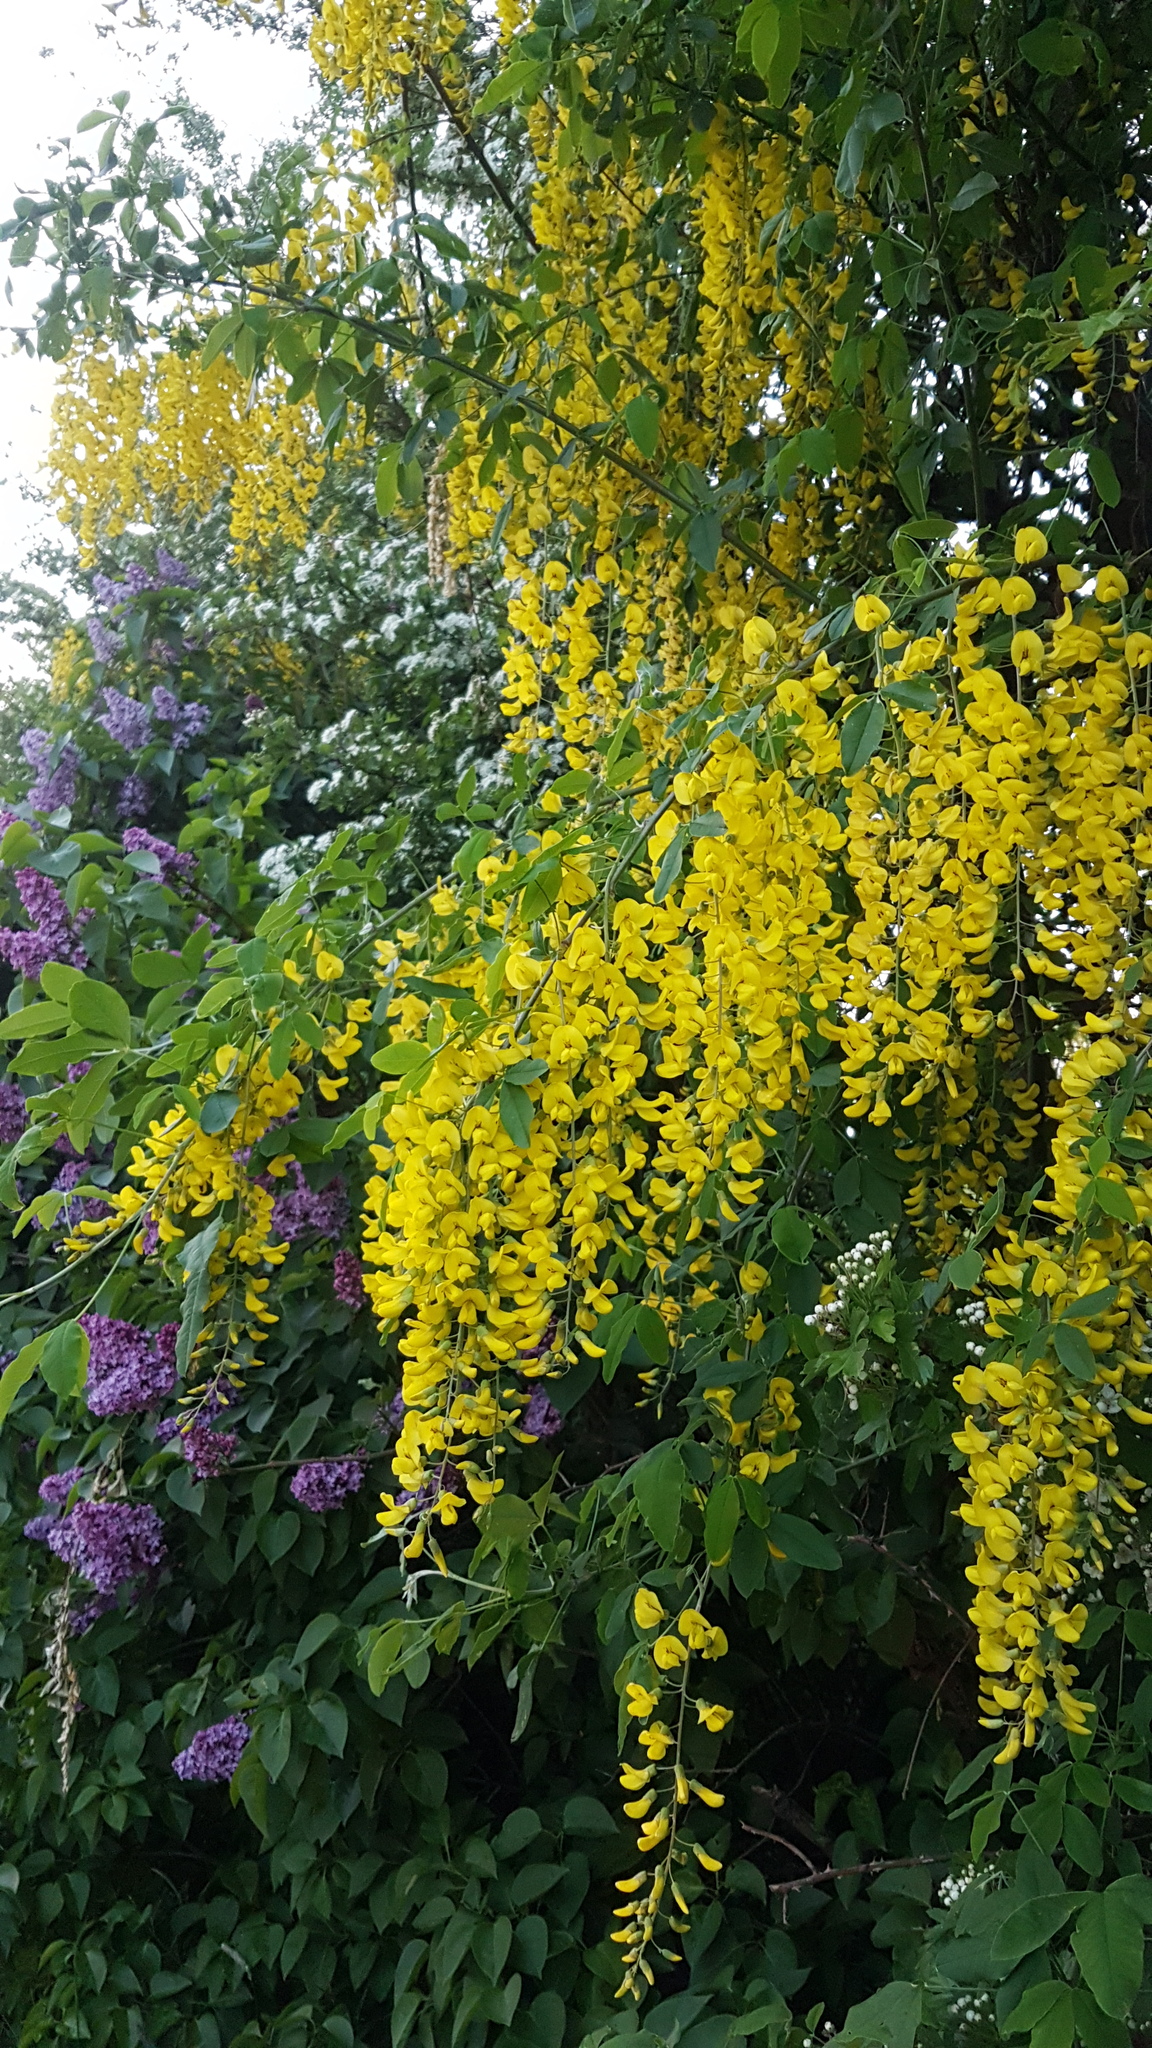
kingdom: Plantae
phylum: Tracheophyta
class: Magnoliopsida
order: Fabales
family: Fabaceae
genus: Laburnum
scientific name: Laburnum anagyroides
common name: Laburnum
